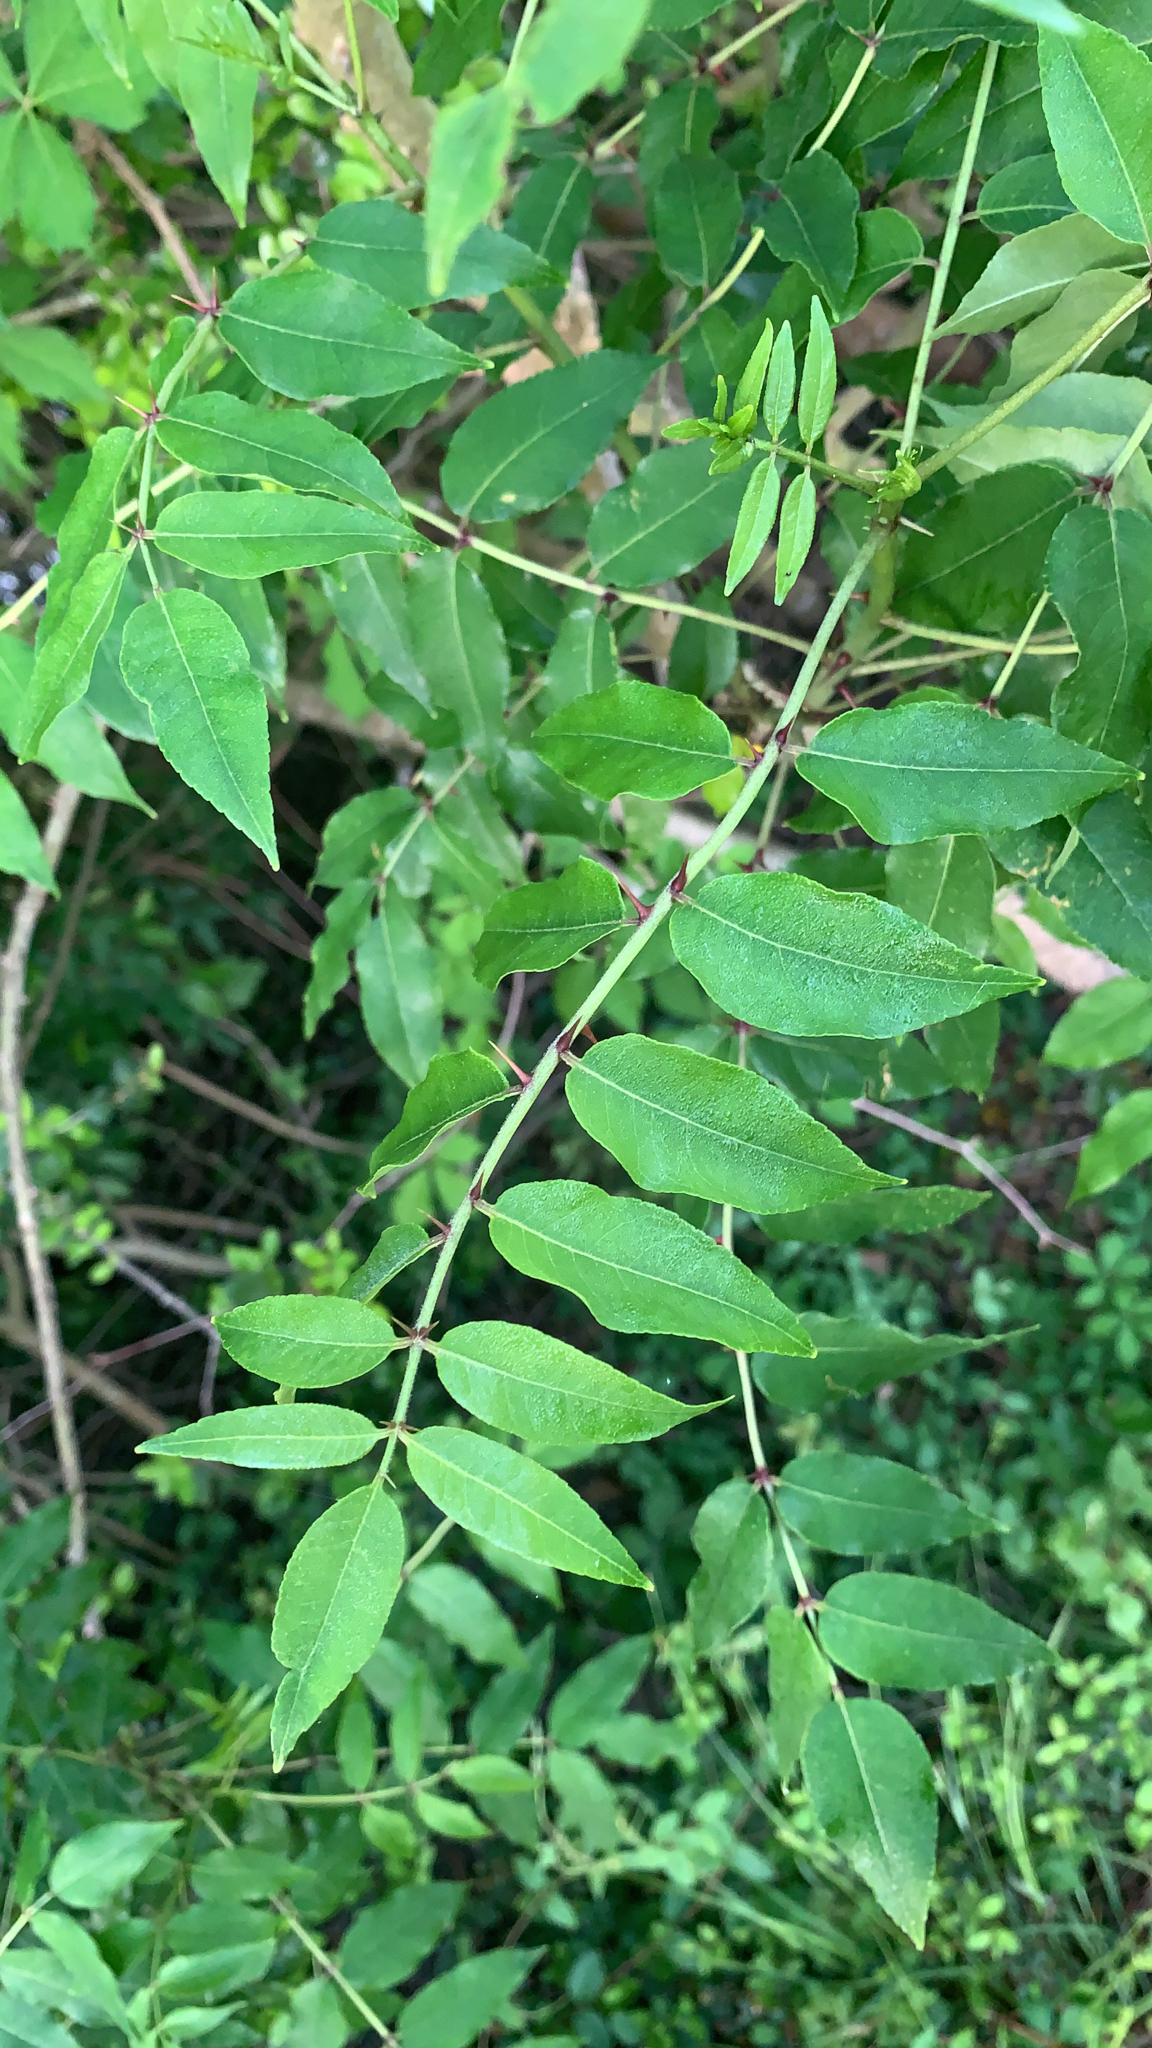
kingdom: Plantae
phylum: Tracheophyta
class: Magnoliopsida
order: Sapindales
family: Rutaceae
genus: Zanthoxylum
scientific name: Zanthoxylum clava-herculis
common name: Hercules'-club
